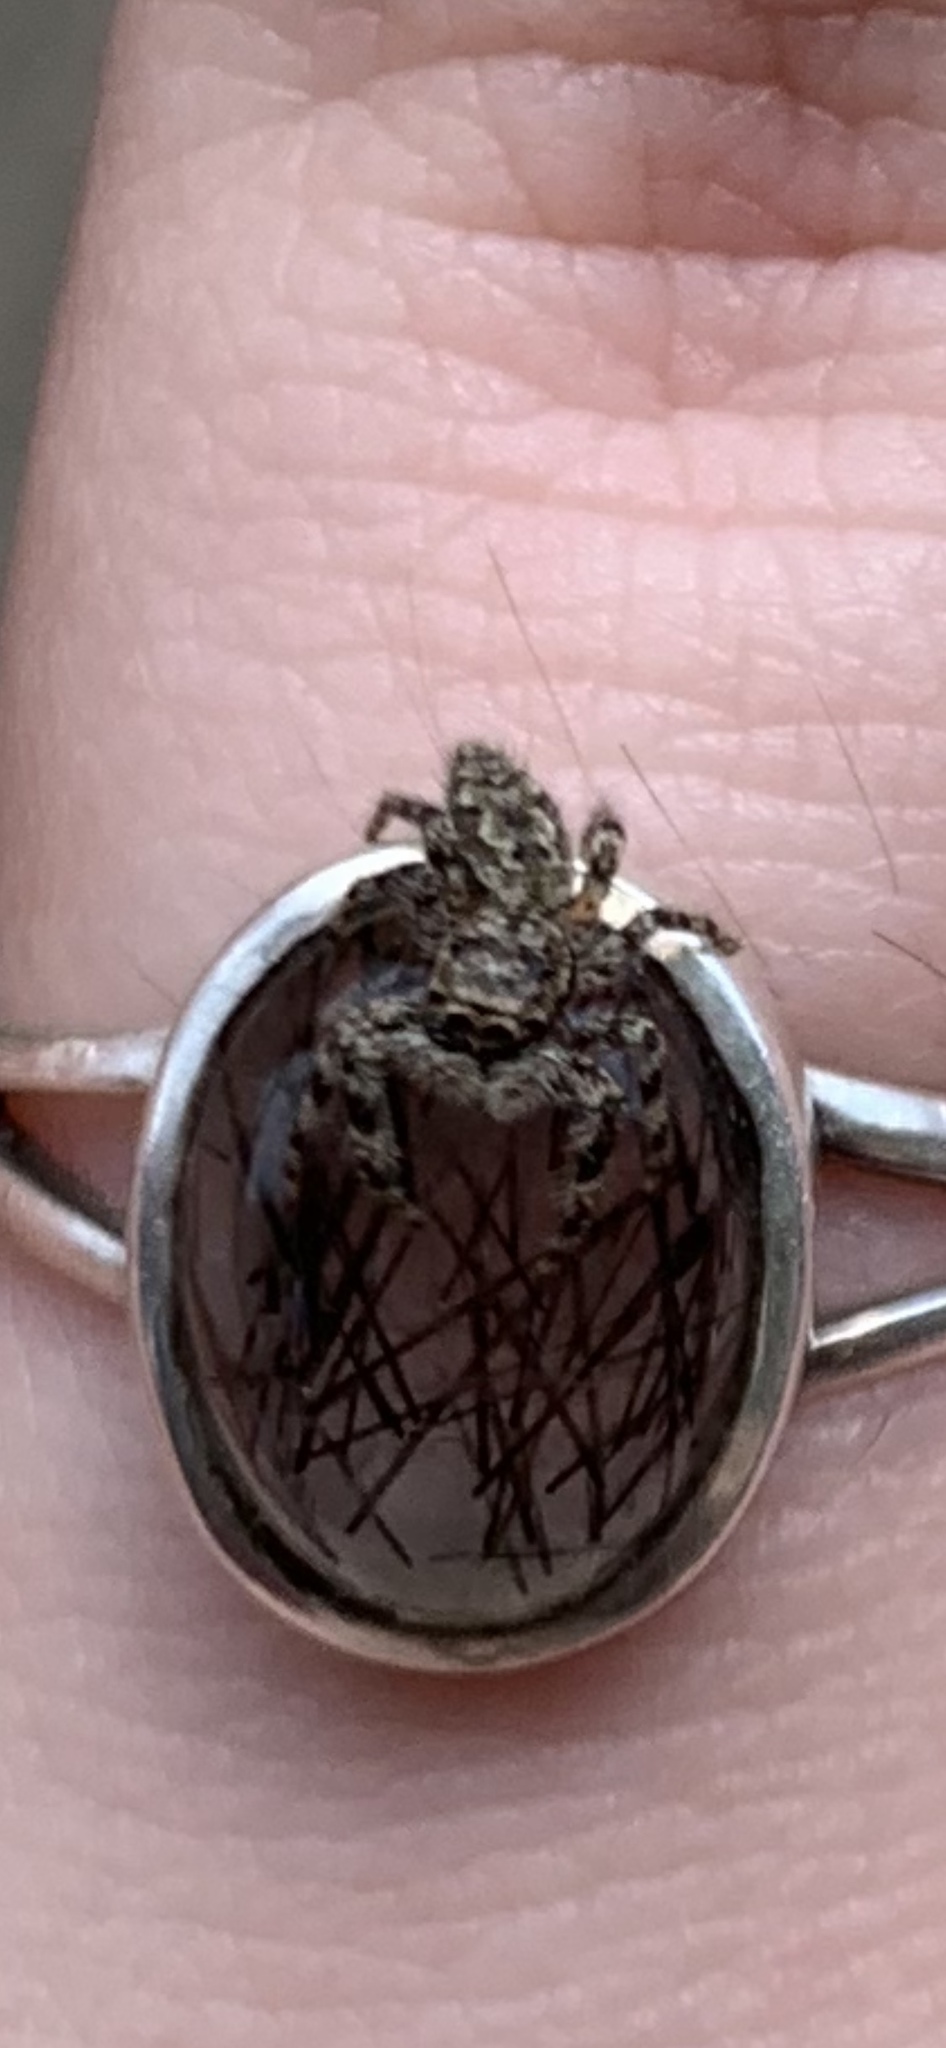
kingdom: Animalia
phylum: Arthropoda
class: Arachnida
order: Araneae
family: Salticidae
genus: Platycryptus
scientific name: Platycryptus undatus
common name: Tan jumping spider
